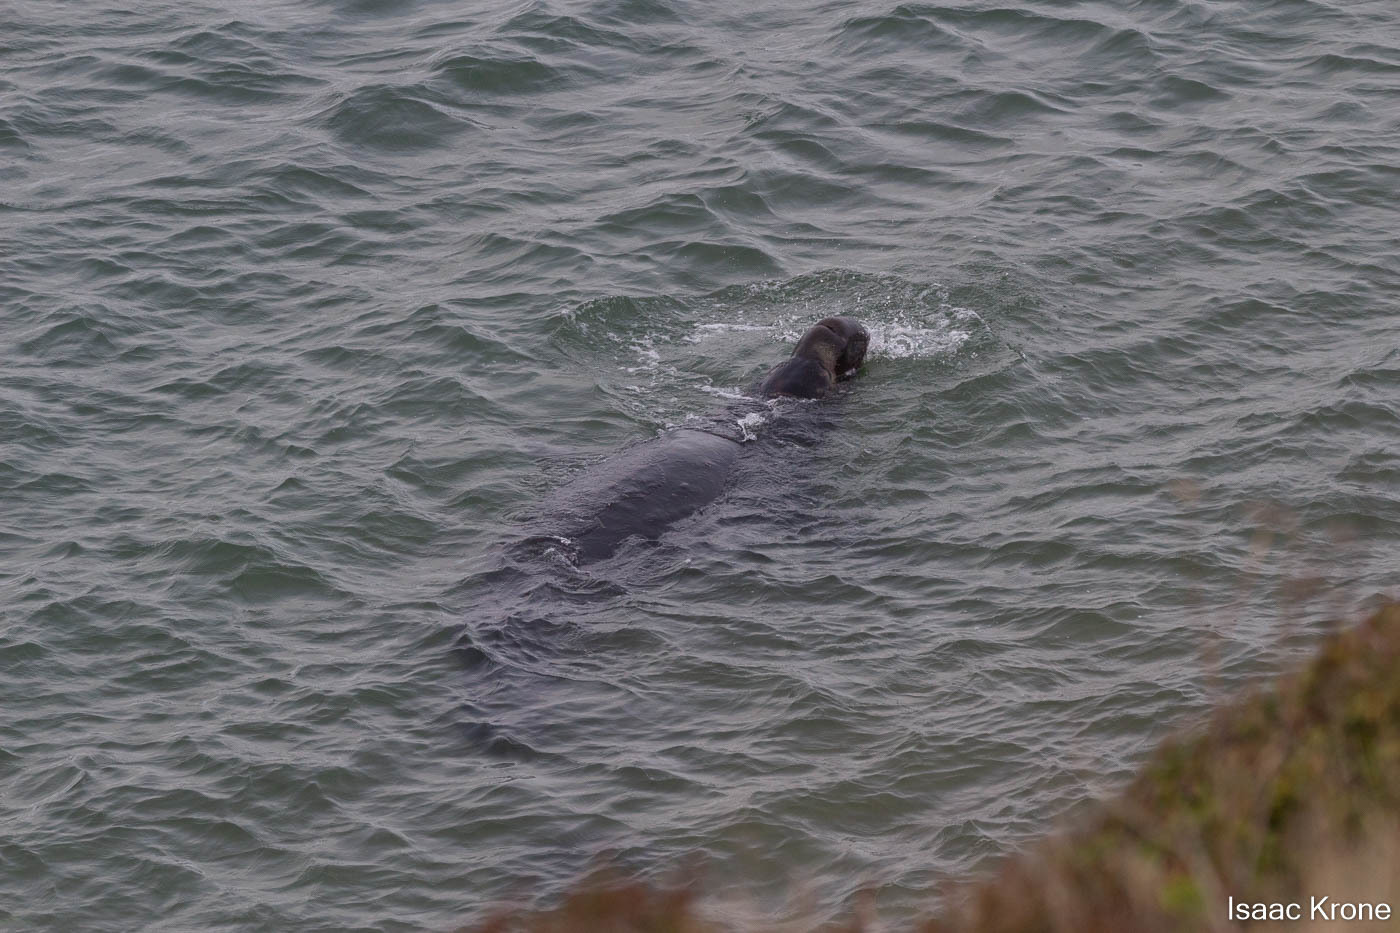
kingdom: Animalia
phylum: Chordata
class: Mammalia
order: Carnivora
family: Phocidae
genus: Mirounga
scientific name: Mirounga angustirostris
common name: Northern elephant seal
